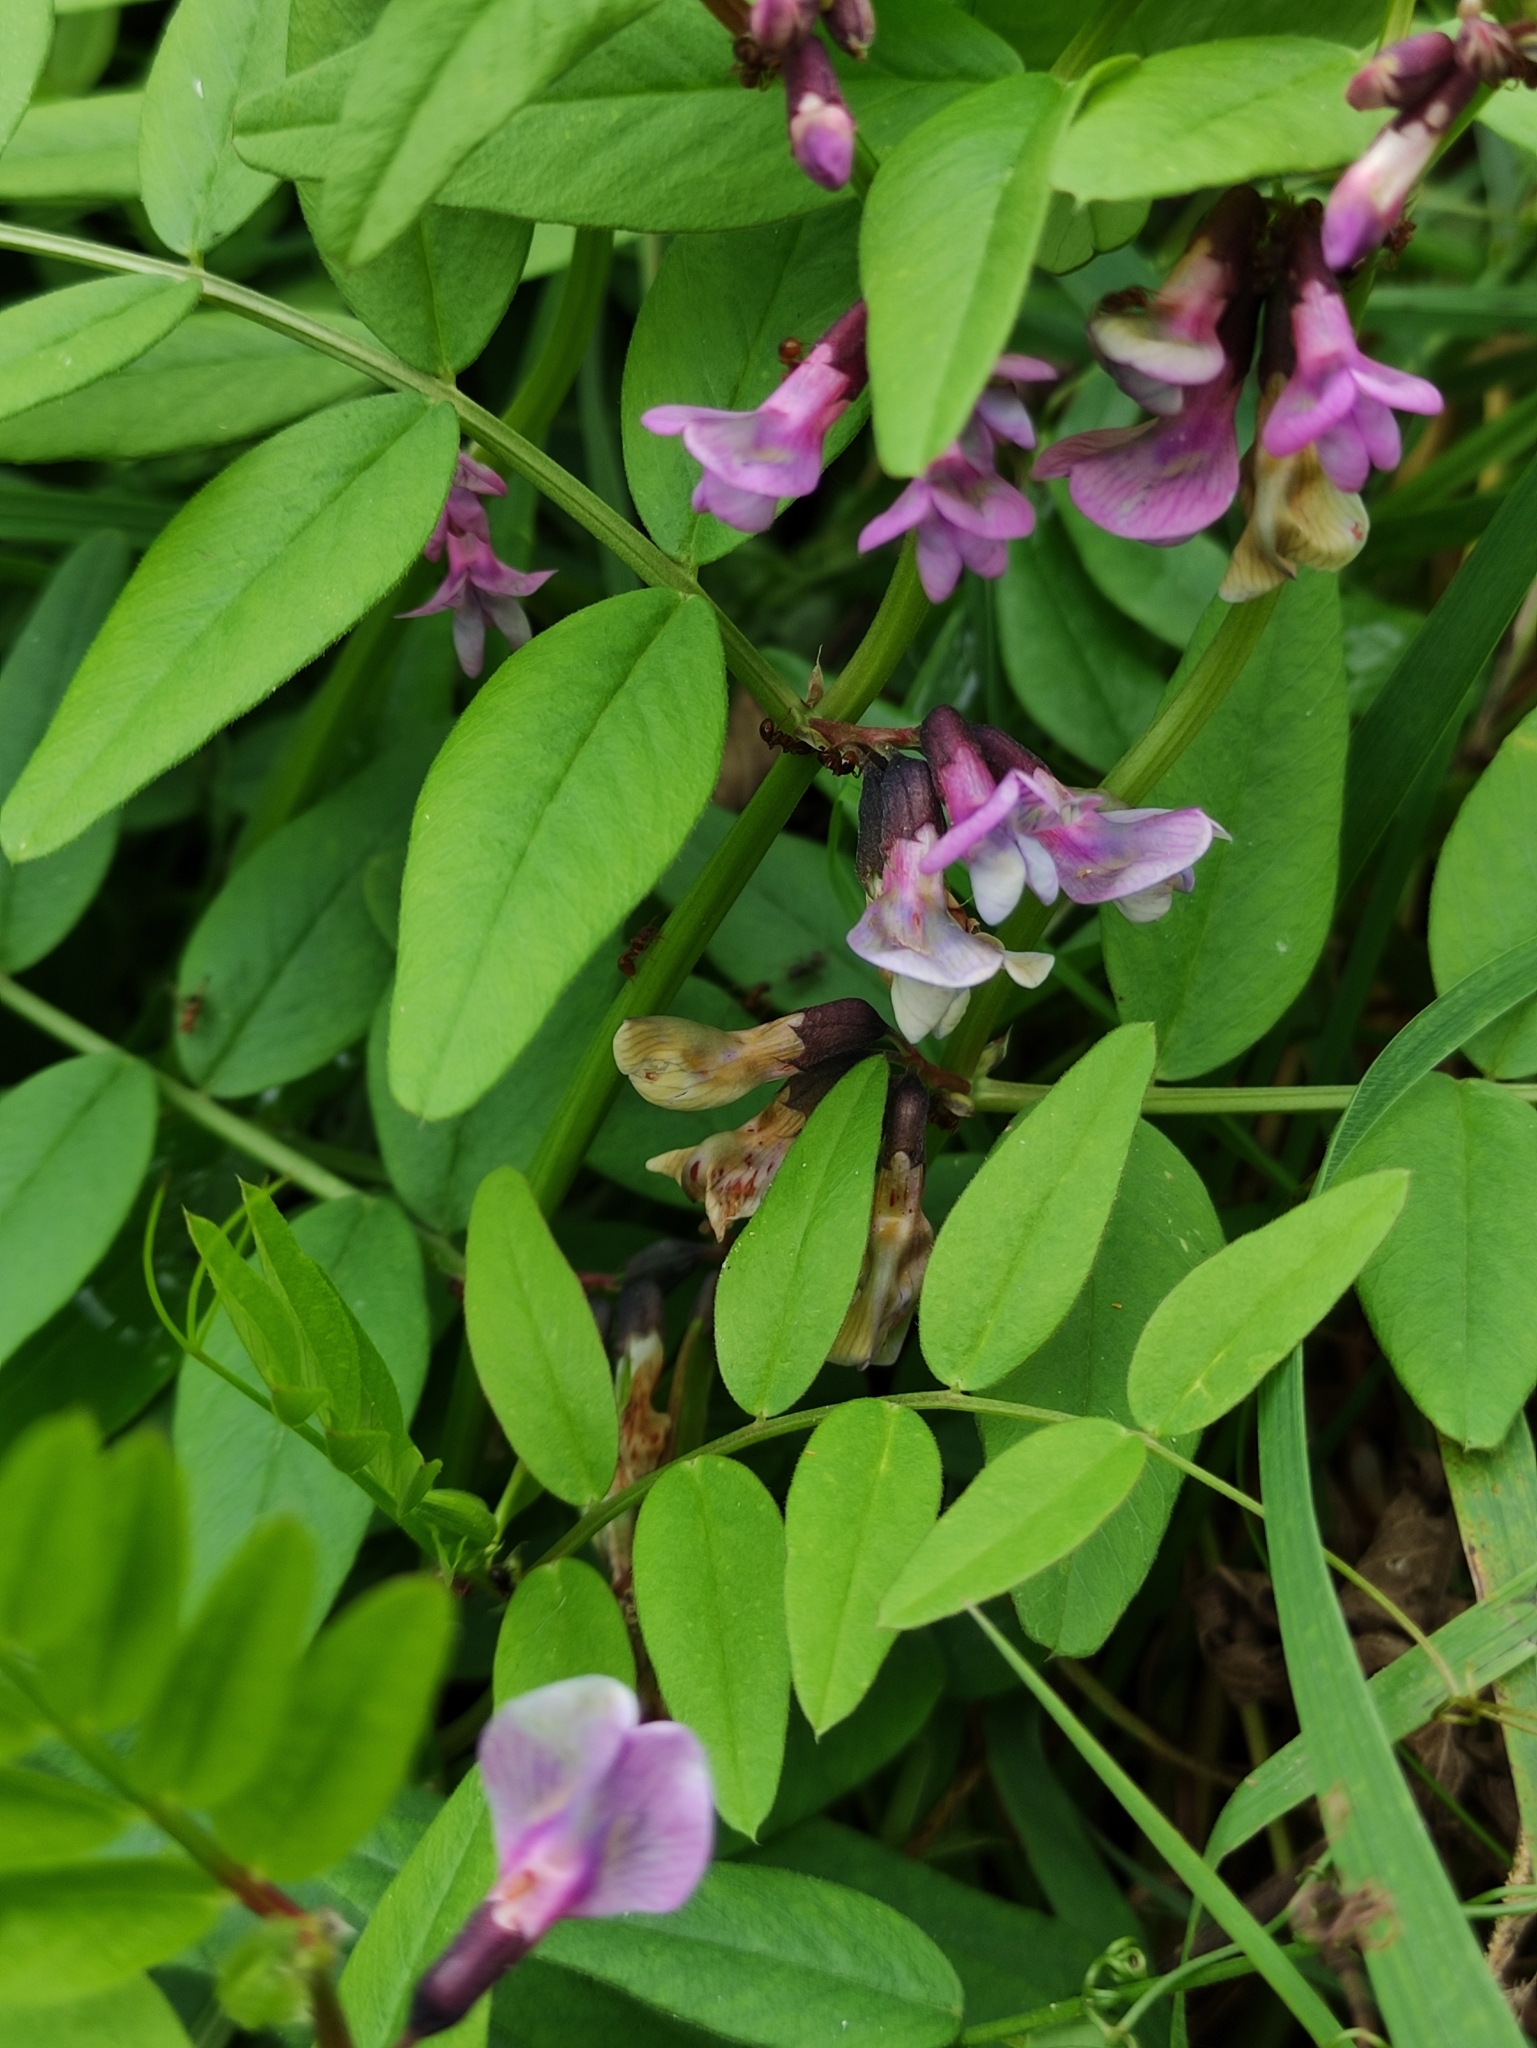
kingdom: Plantae
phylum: Tracheophyta
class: Magnoliopsida
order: Fabales
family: Fabaceae
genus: Vicia
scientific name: Vicia sepium
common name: Bush vetch
